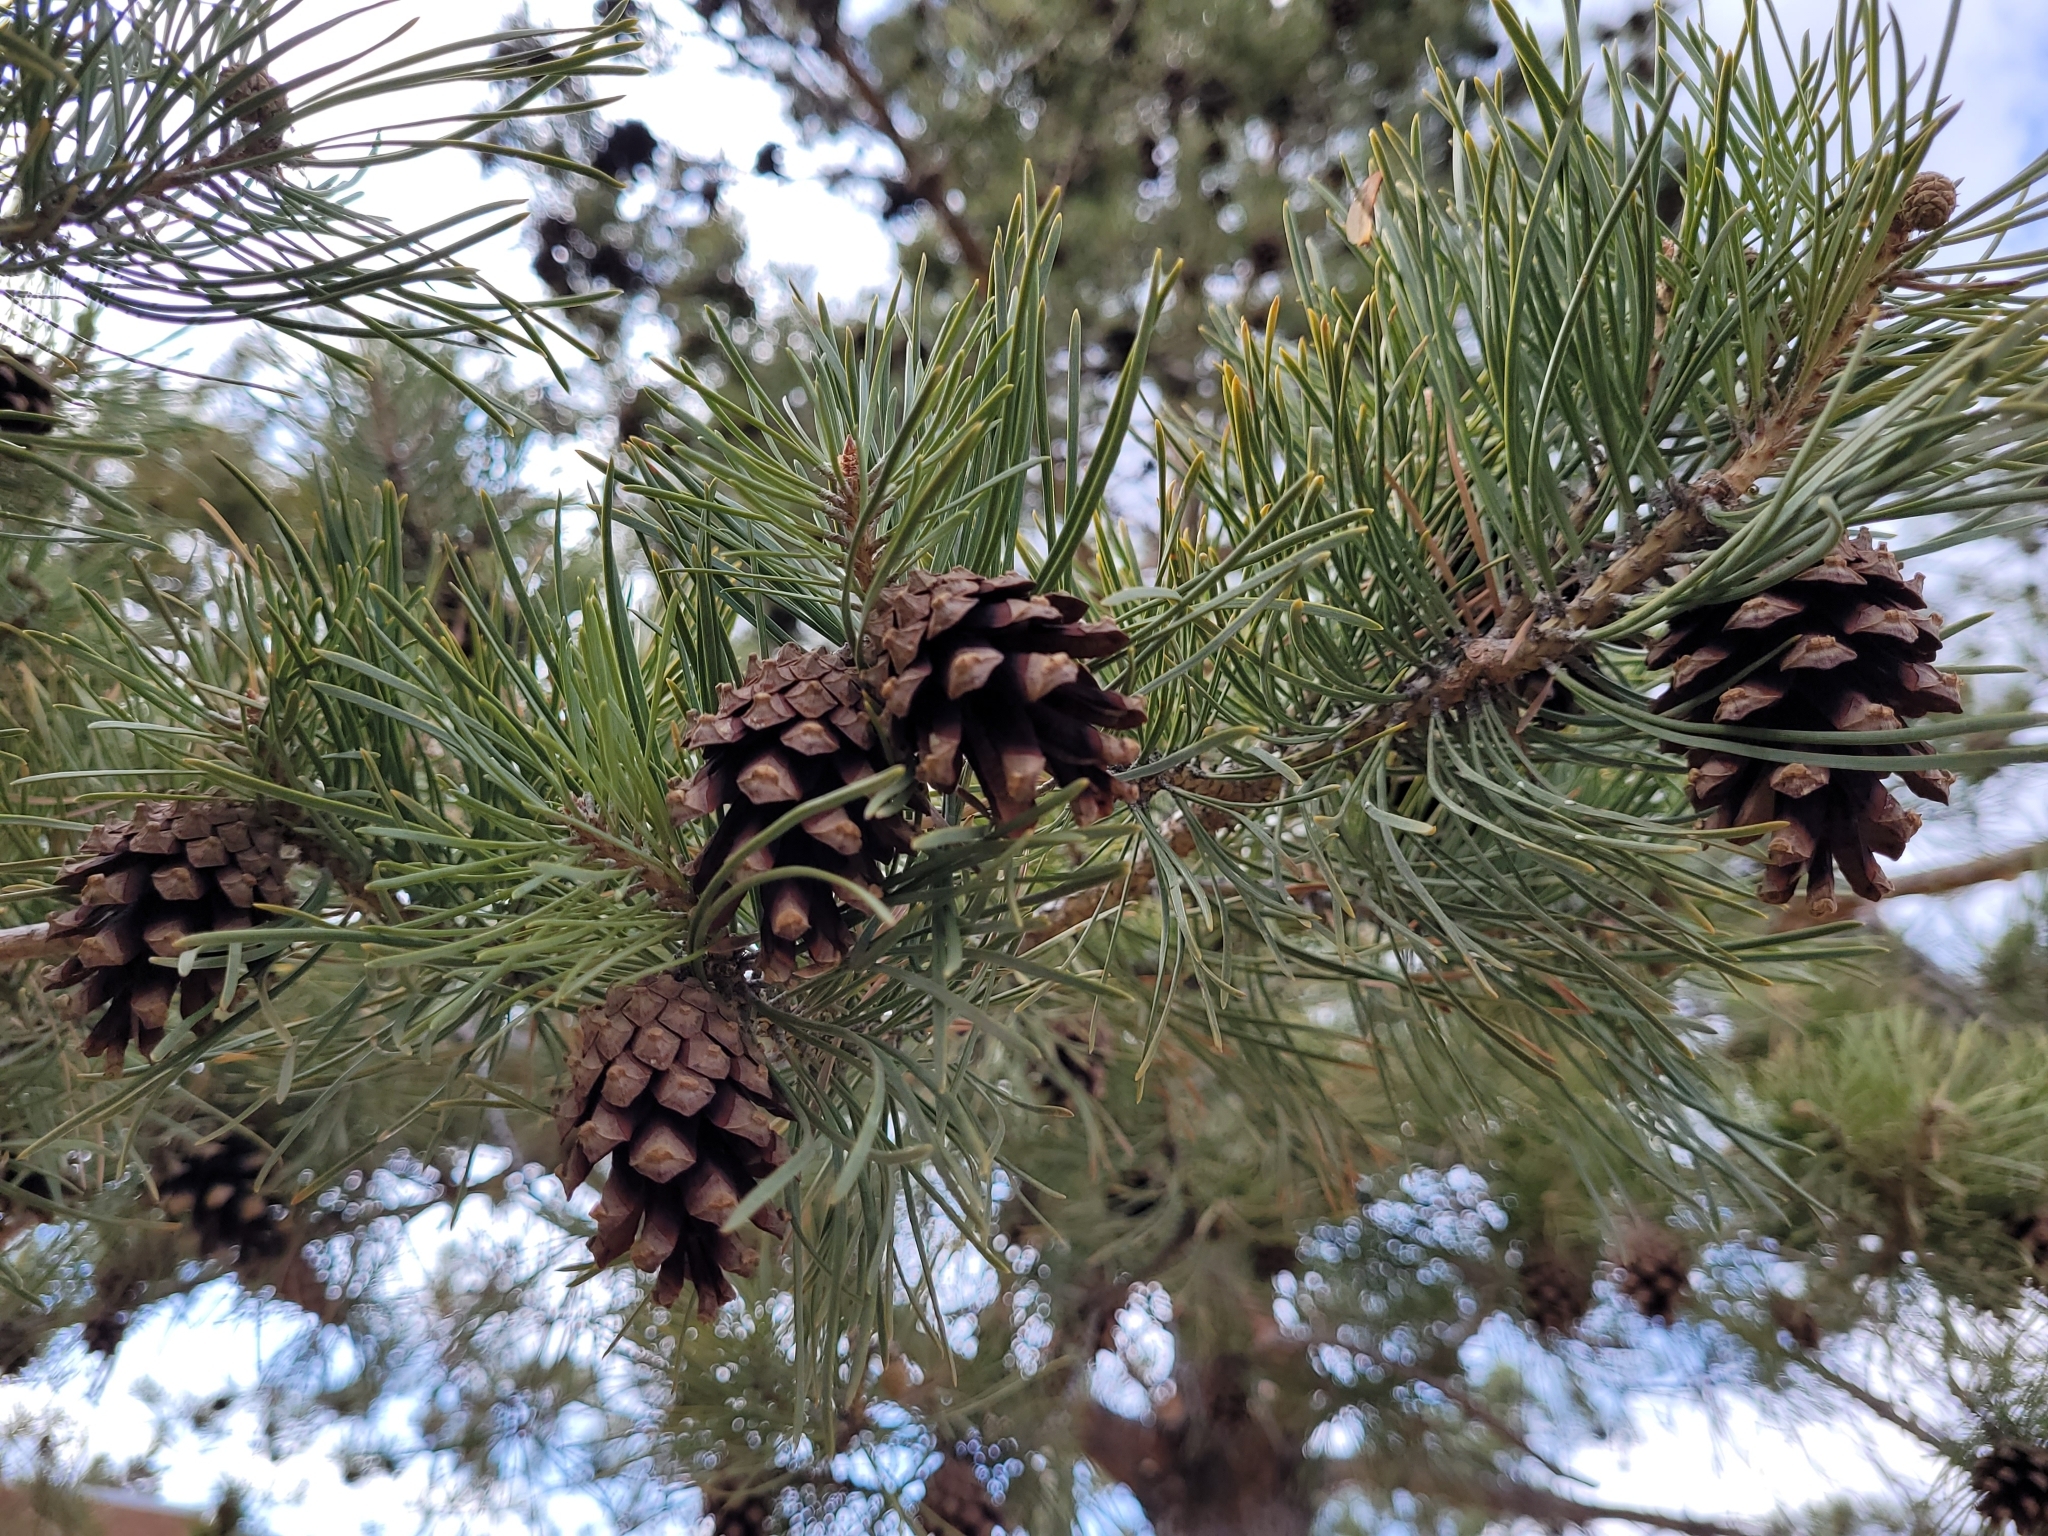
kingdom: Plantae
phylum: Tracheophyta
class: Pinopsida
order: Pinales
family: Pinaceae
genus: Pinus
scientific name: Pinus sylvestris
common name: Scots pine
